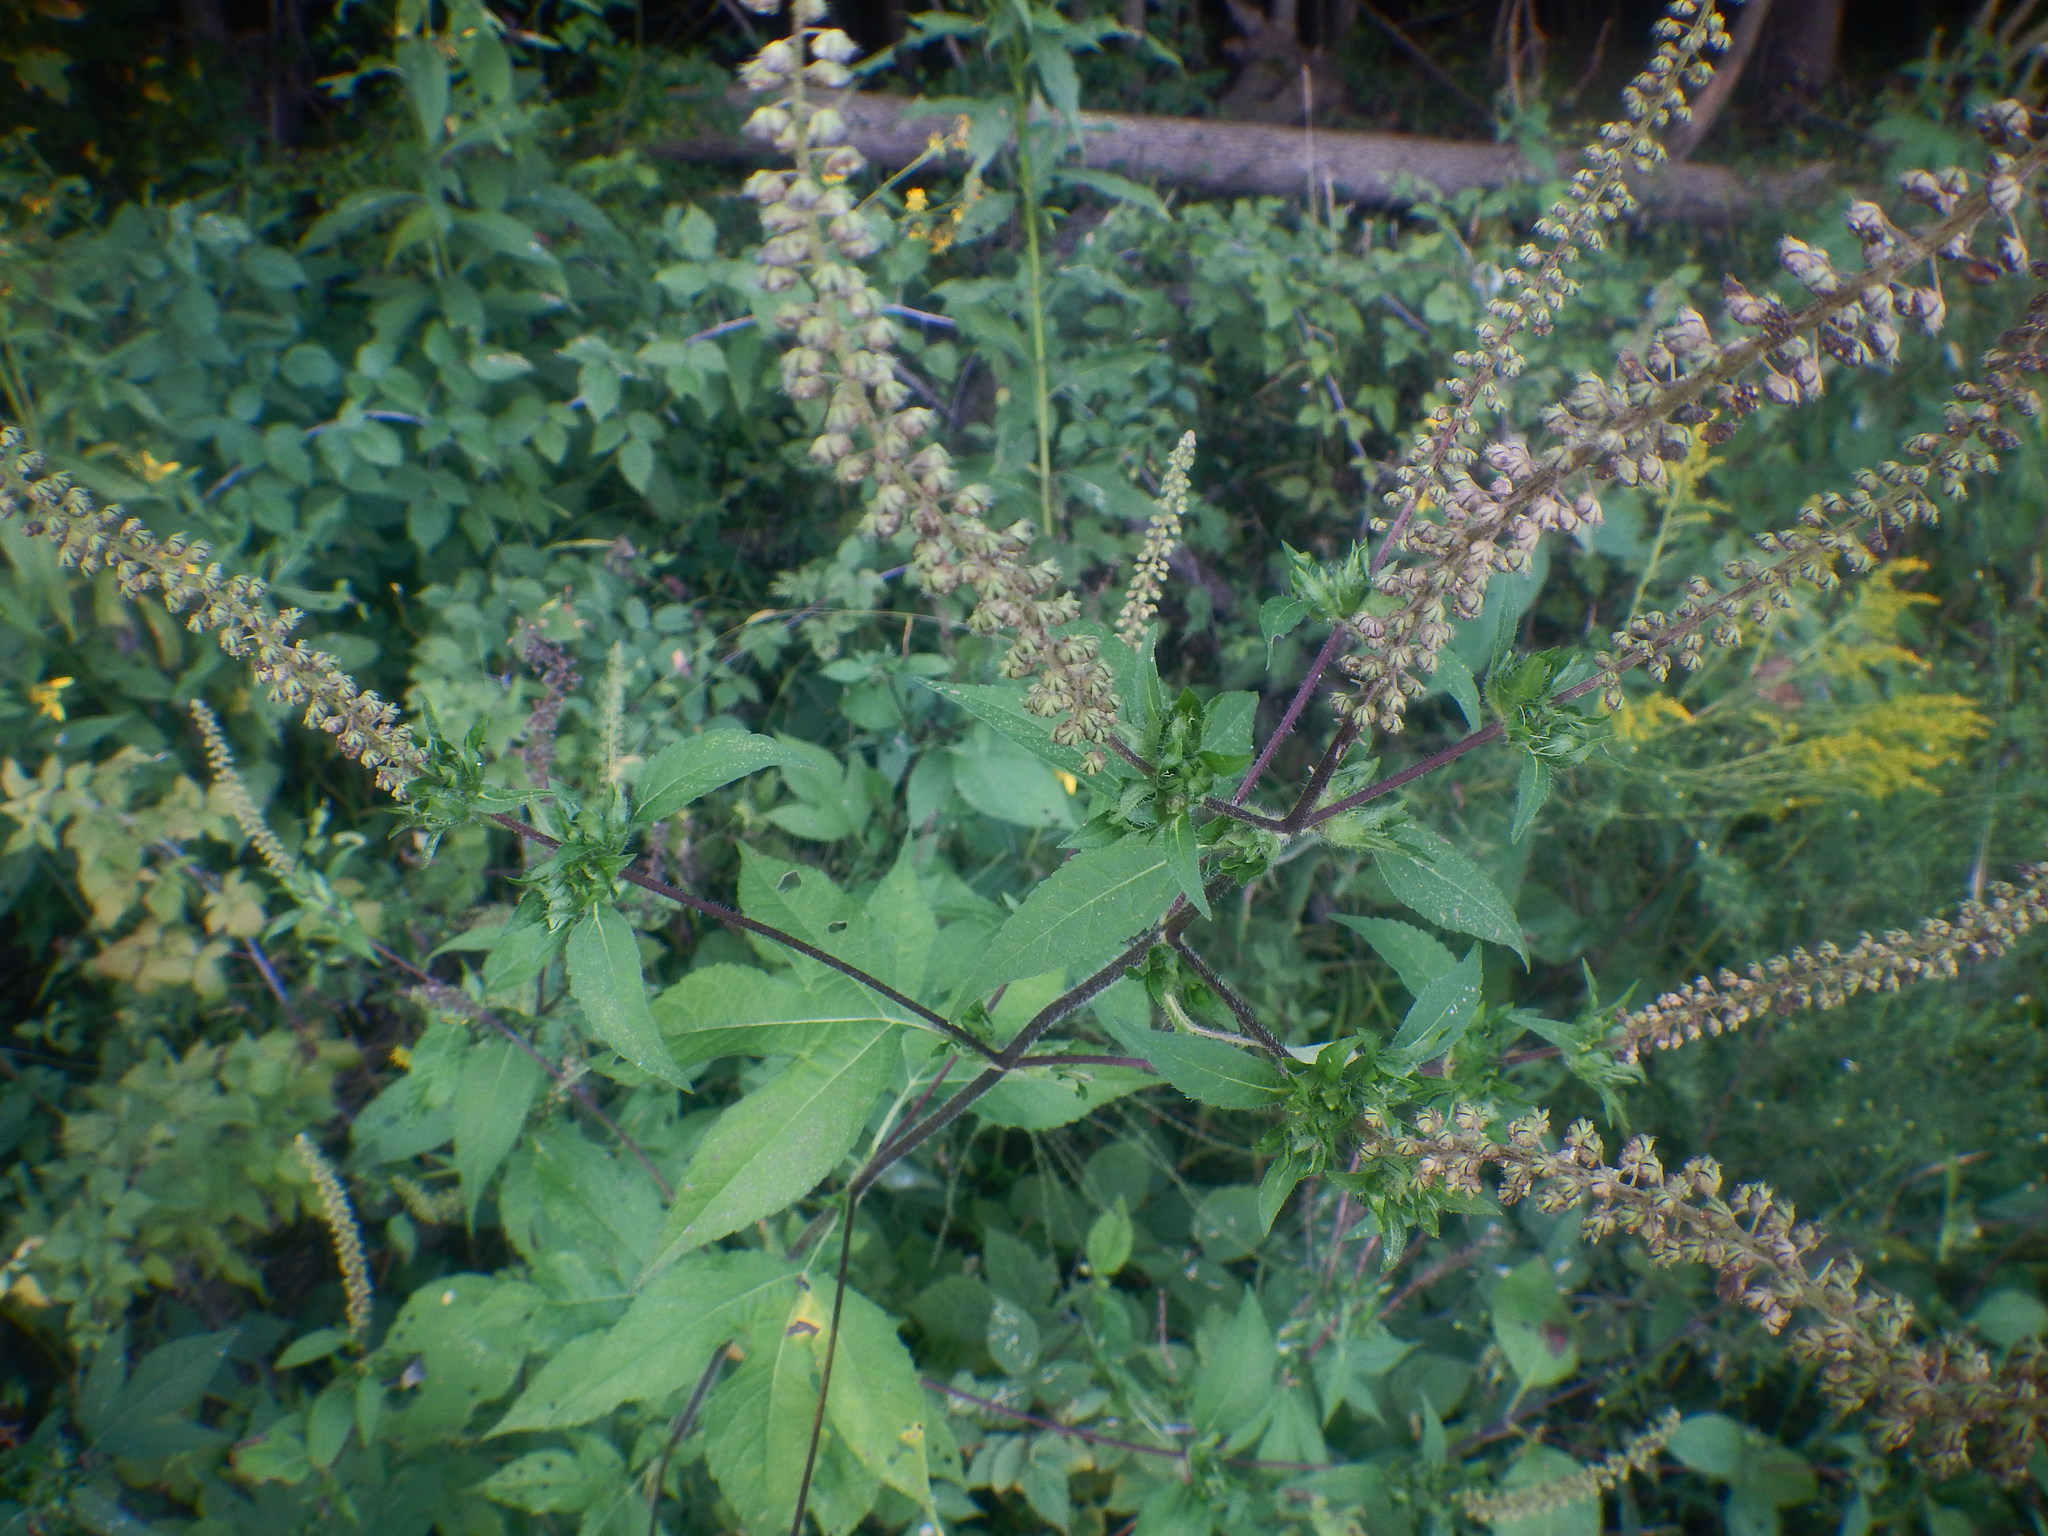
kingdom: Plantae
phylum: Tracheophyta
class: Magnoliopsida
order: Asterales
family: Asteraceae
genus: Ambrosia
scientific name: Ambrosia trifida
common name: Giant ragweed
